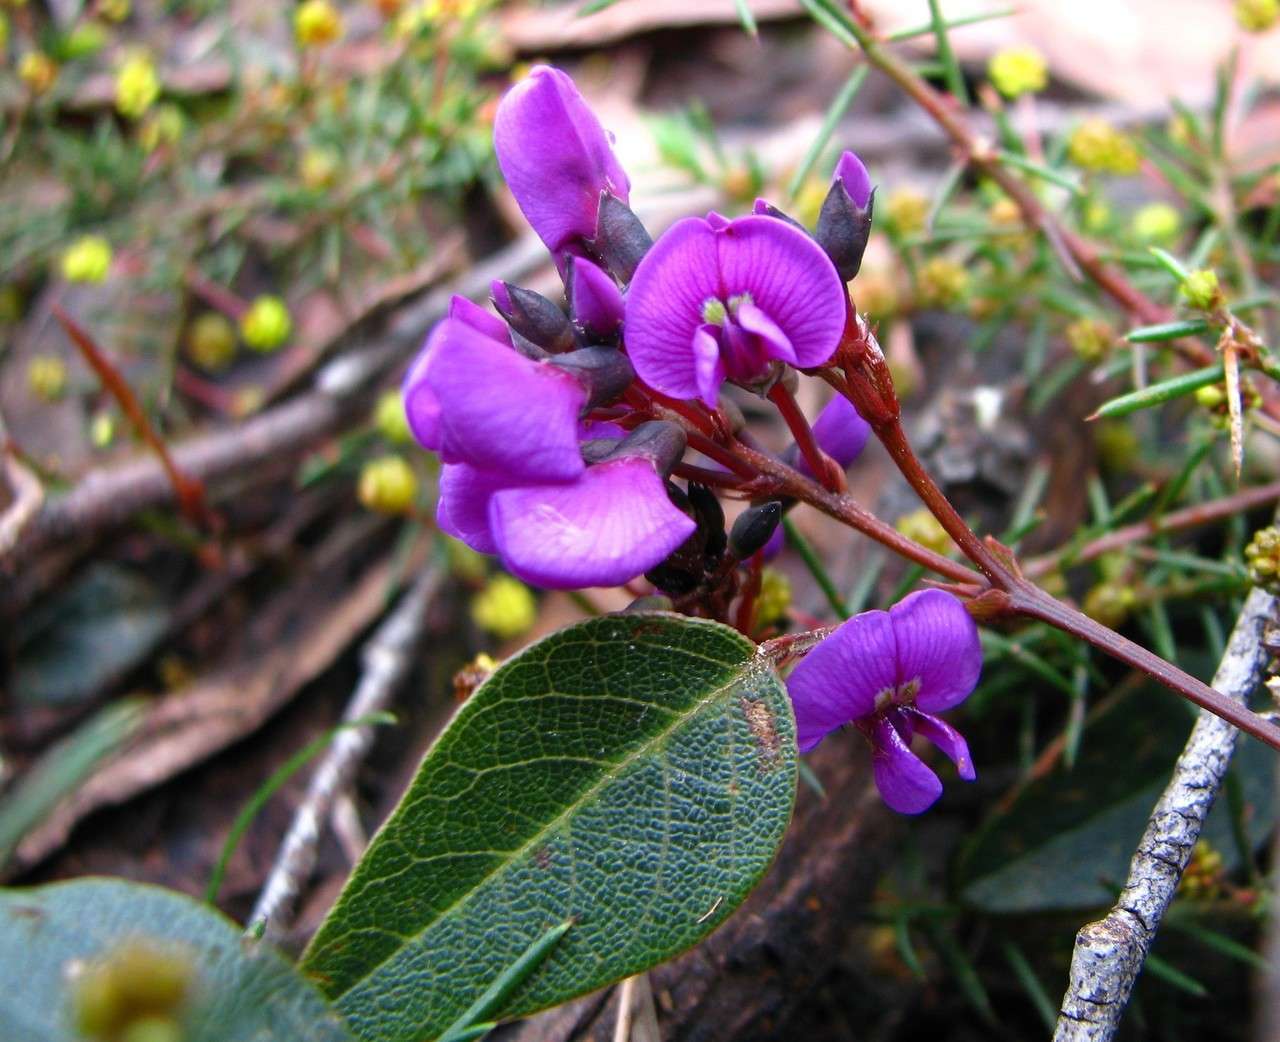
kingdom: Plantae
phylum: Tracheophyta
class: Magnoliopsida
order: Fabales
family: Fabaceae
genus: Hardenbergia
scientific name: Hardenbergia violacea
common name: Coral-pea
